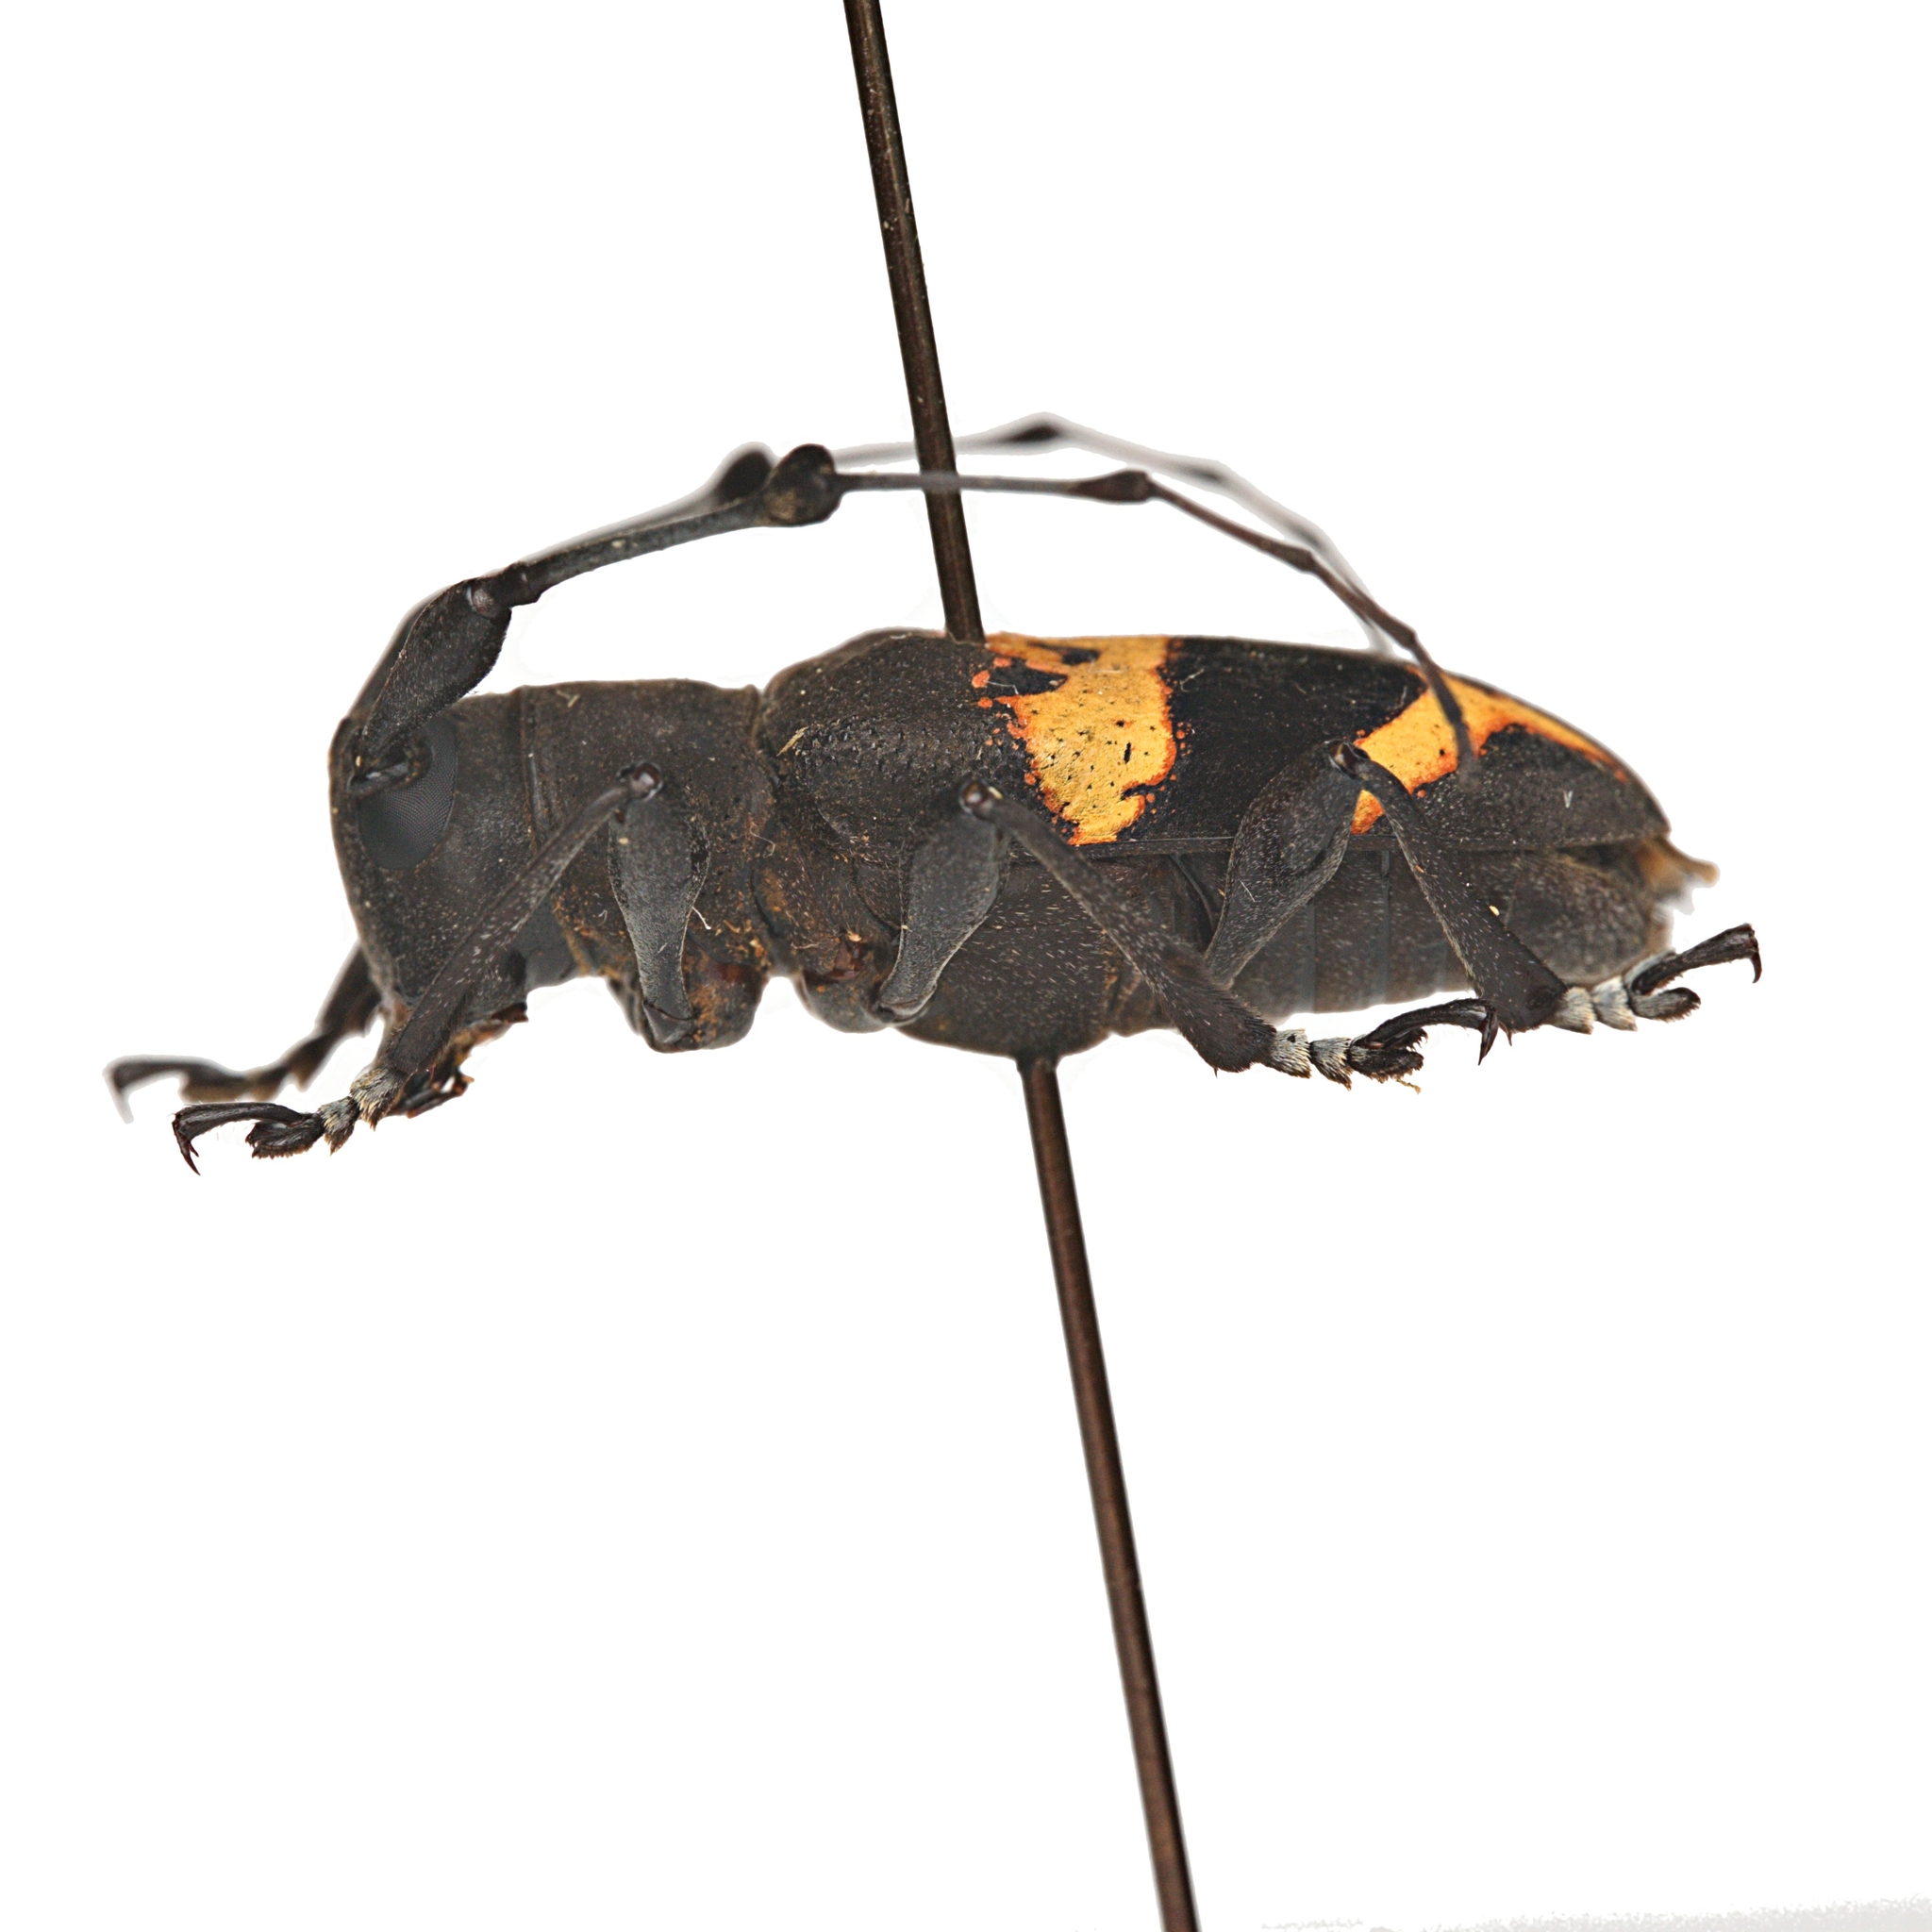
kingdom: Animalia
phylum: Arthropoda
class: Insecta
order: Coleoptera
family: Cerambycidae
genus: Parachalastinus
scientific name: Parachalastinus championi
